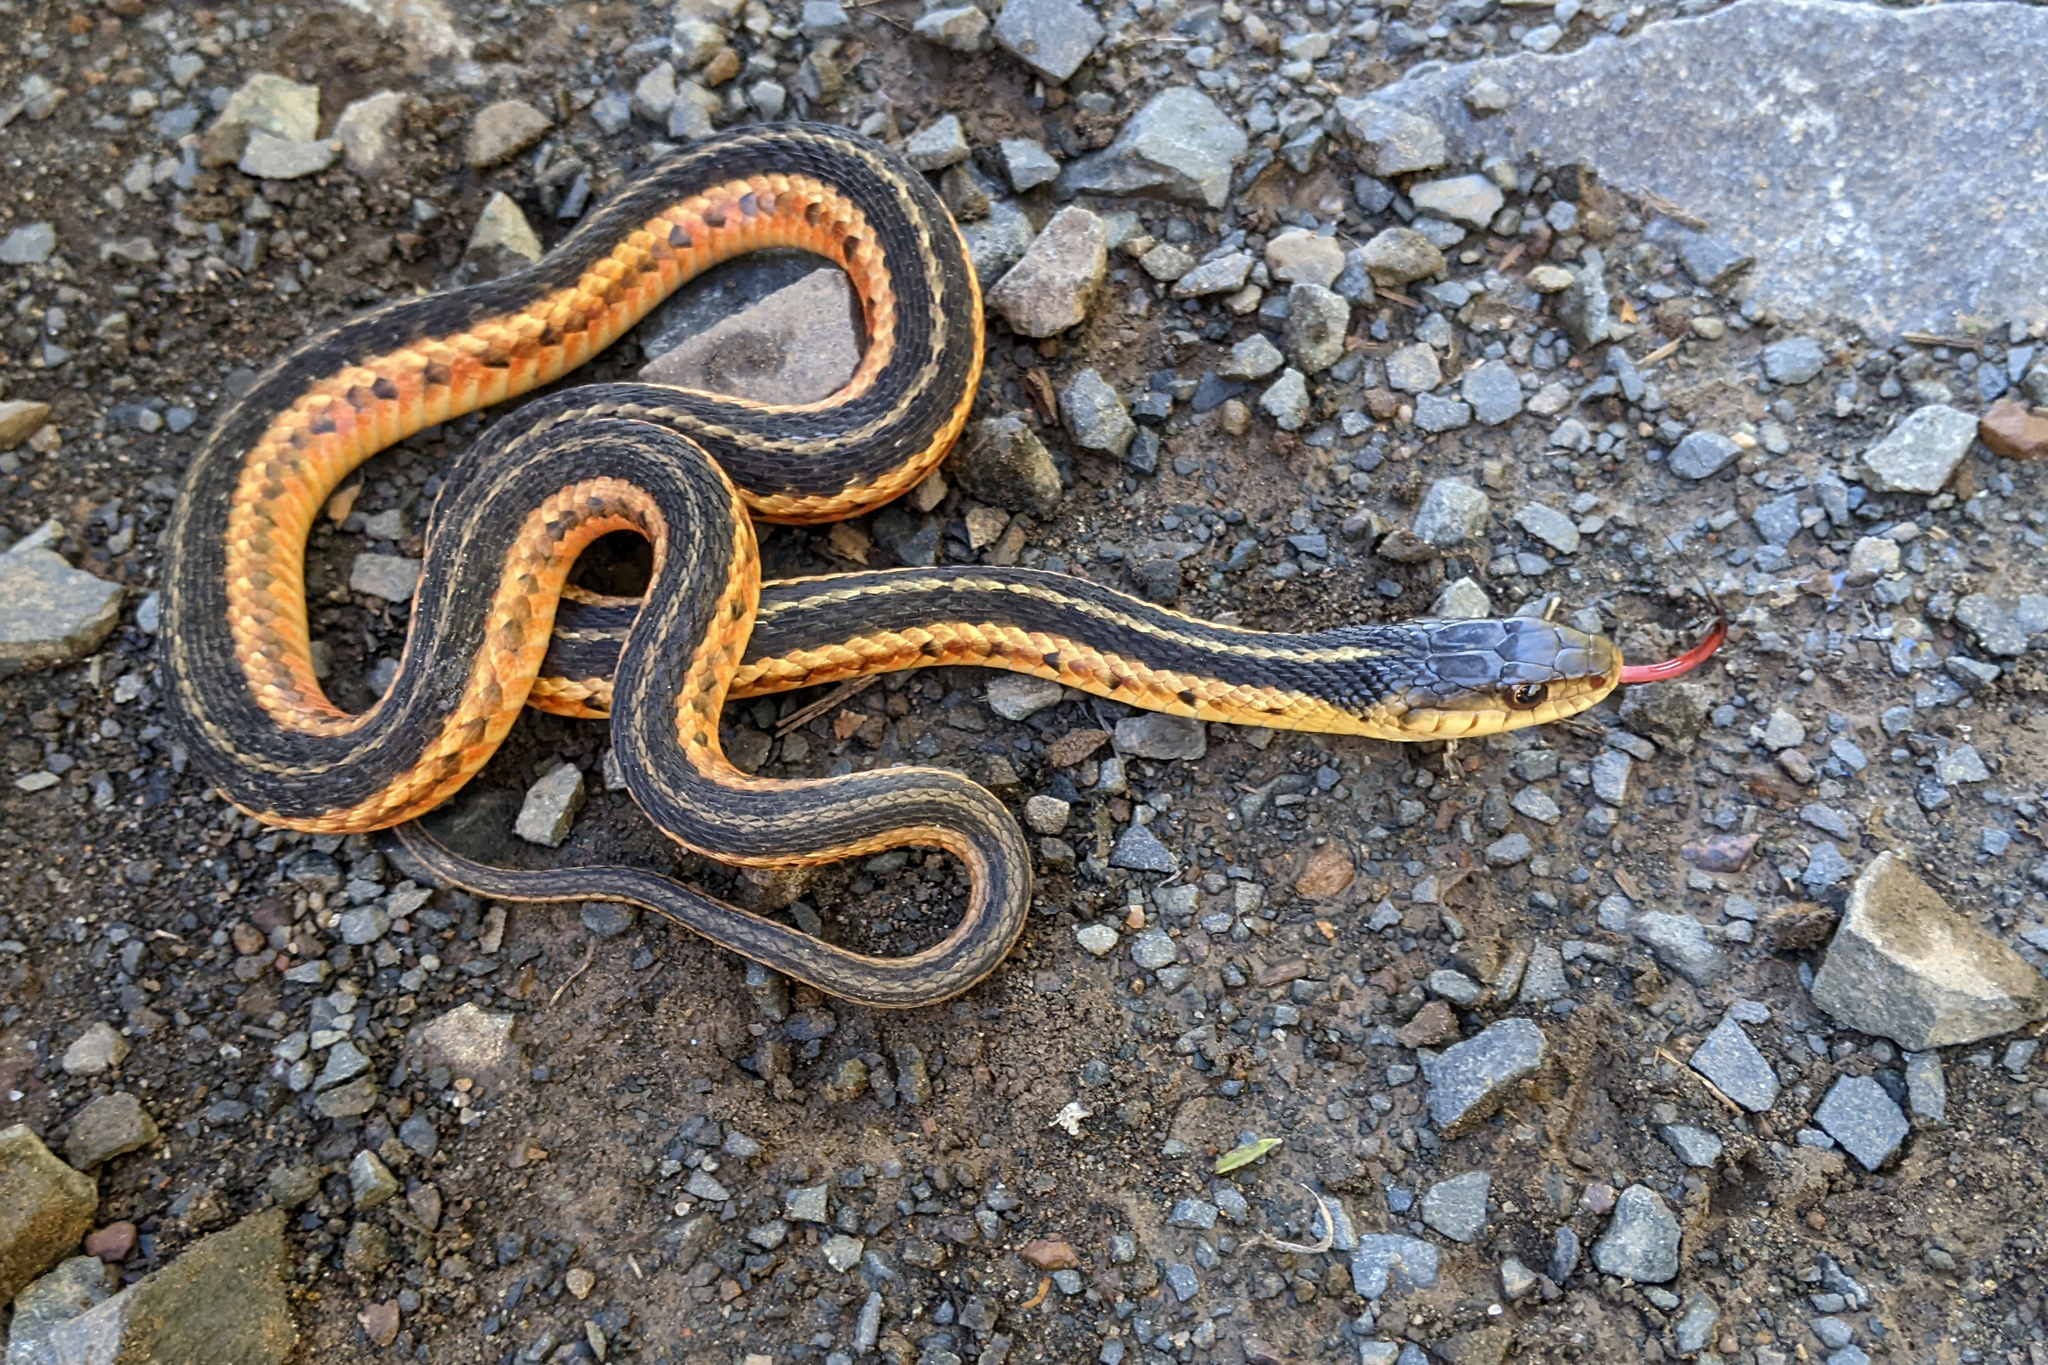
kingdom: Animalia
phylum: Chordata
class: Squamata
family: Colubridae
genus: Thamnophis
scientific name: Thamnophis sirtalis
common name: Common garter snake
